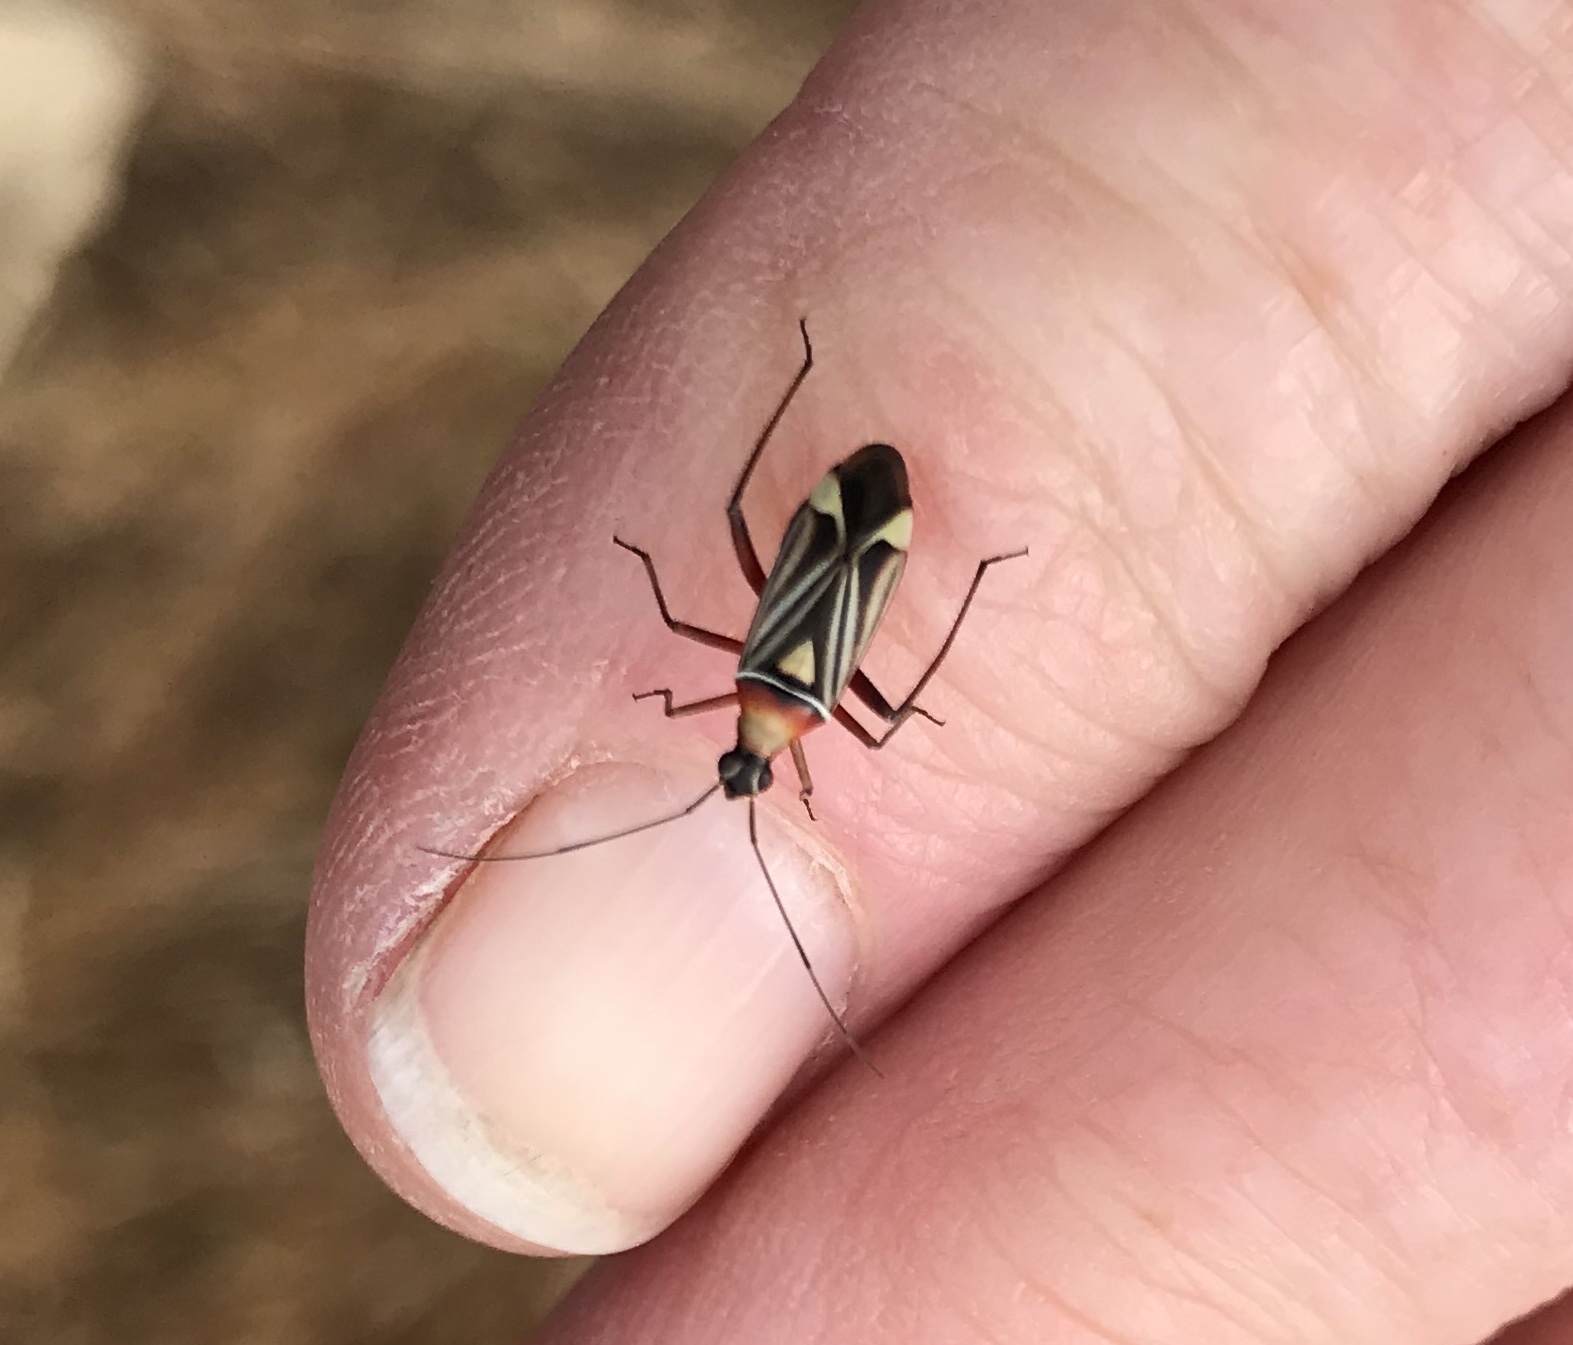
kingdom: Animalia
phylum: Arthropoda
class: Insecta
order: Hemiptera
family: Miridae
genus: Closterocoris
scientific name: Closterocoris amoenus
